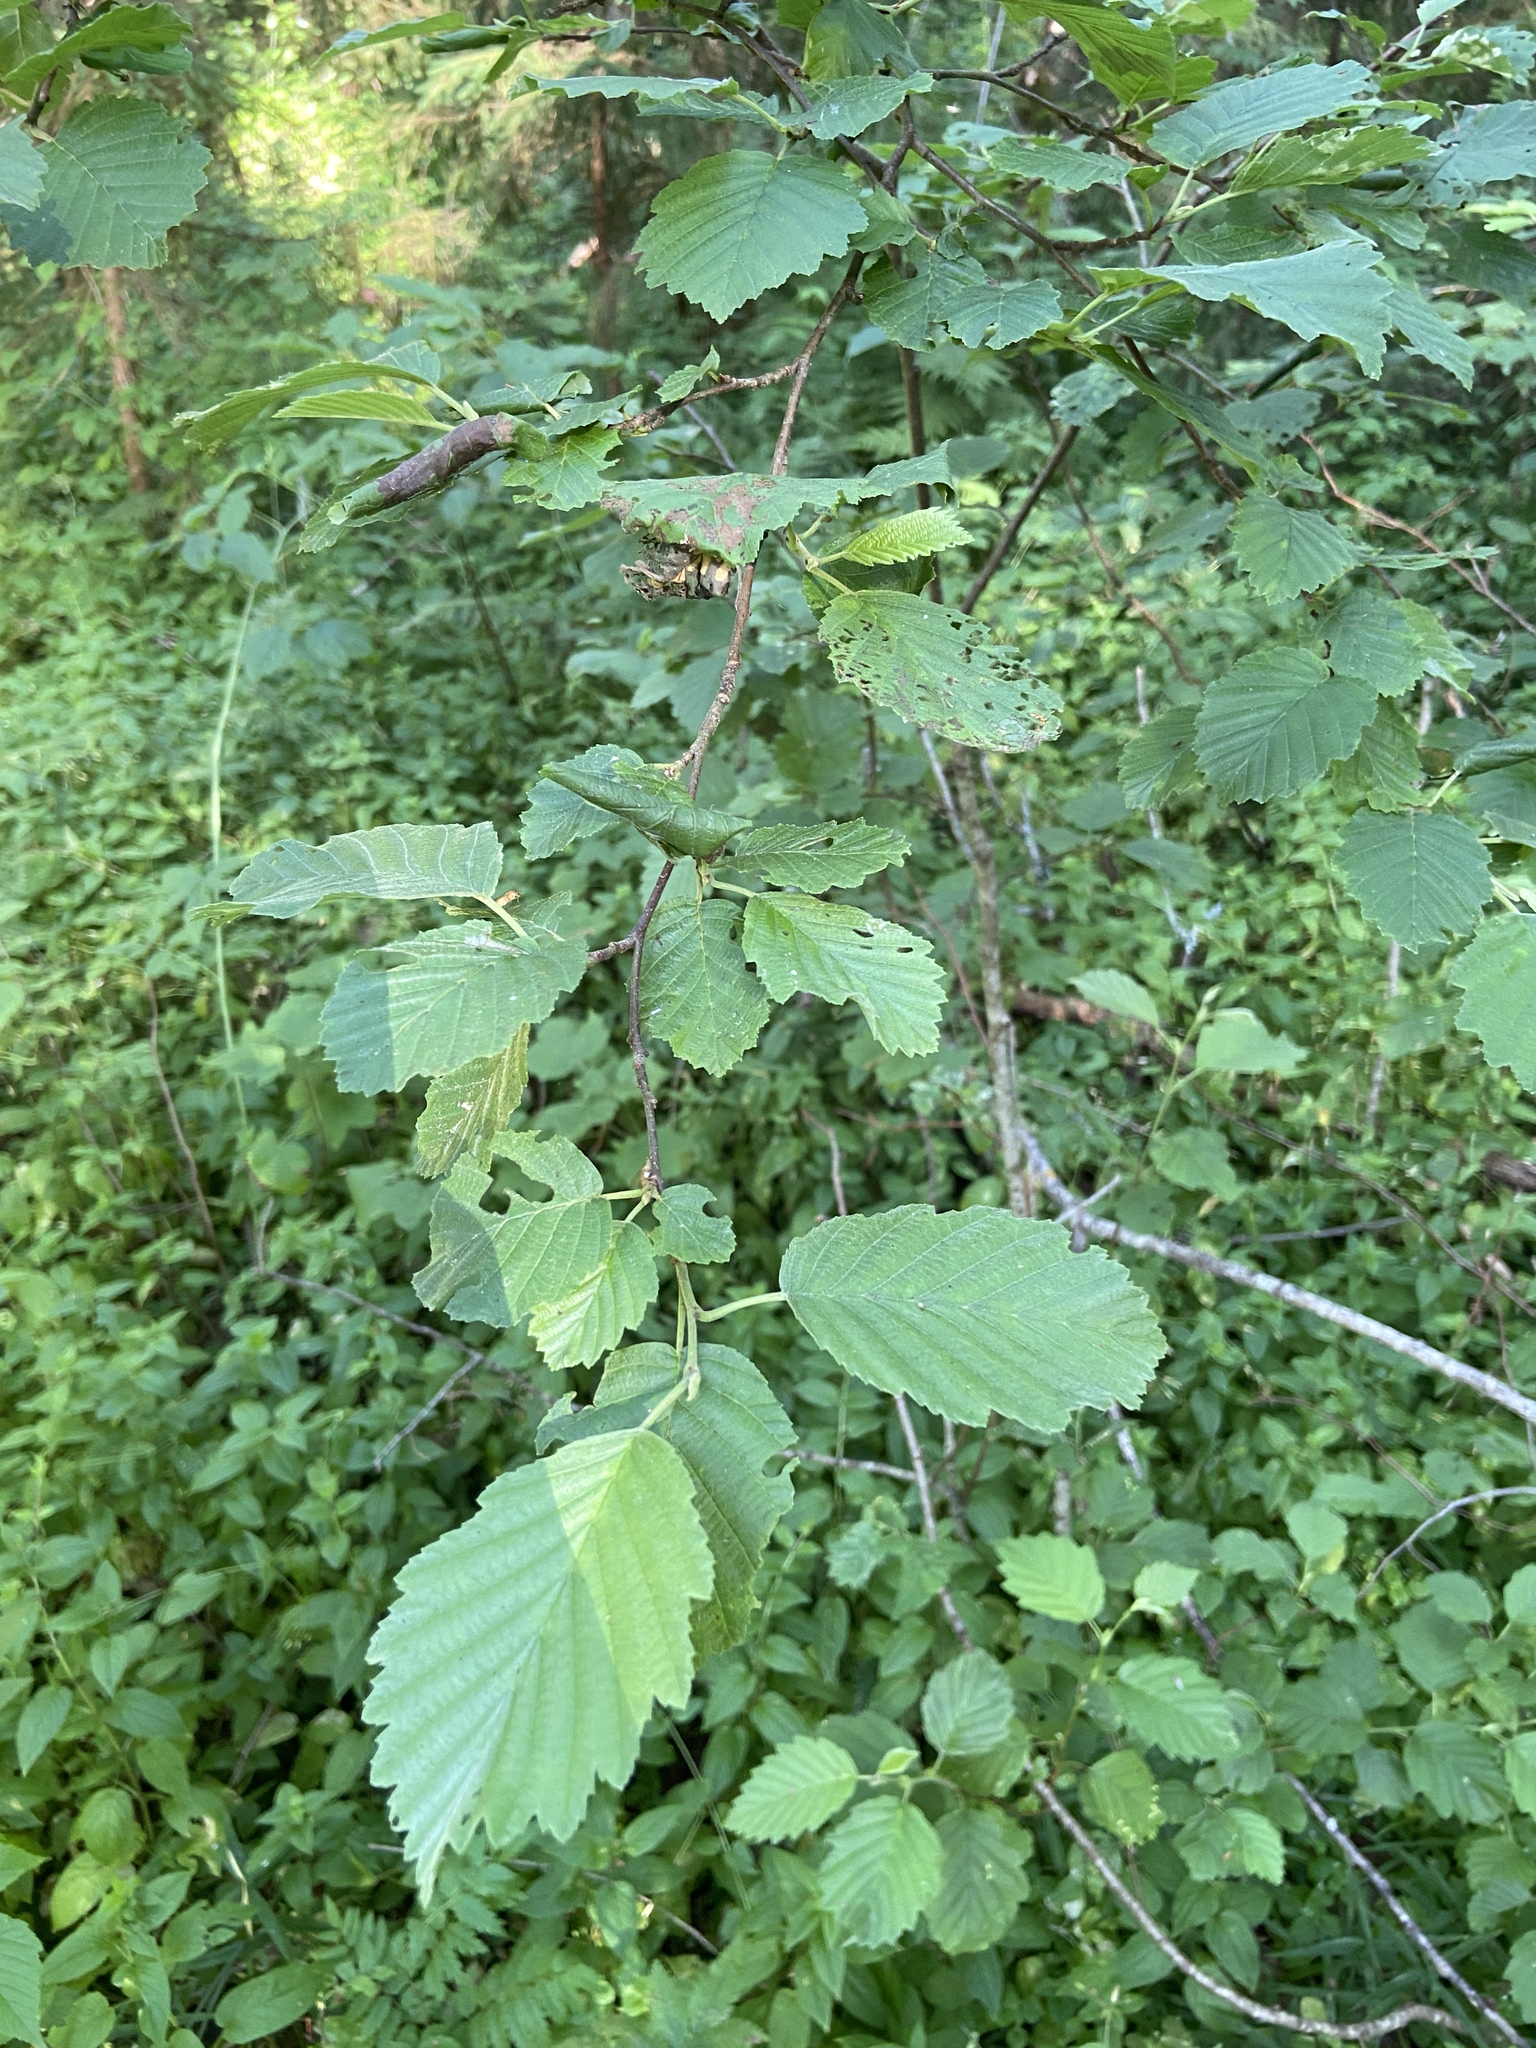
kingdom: Plantae
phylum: Tracheophyta
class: Magnoliopsida
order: Fagales
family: Betulaceae
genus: Alnus
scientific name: Alnus incana
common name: Grey alder
